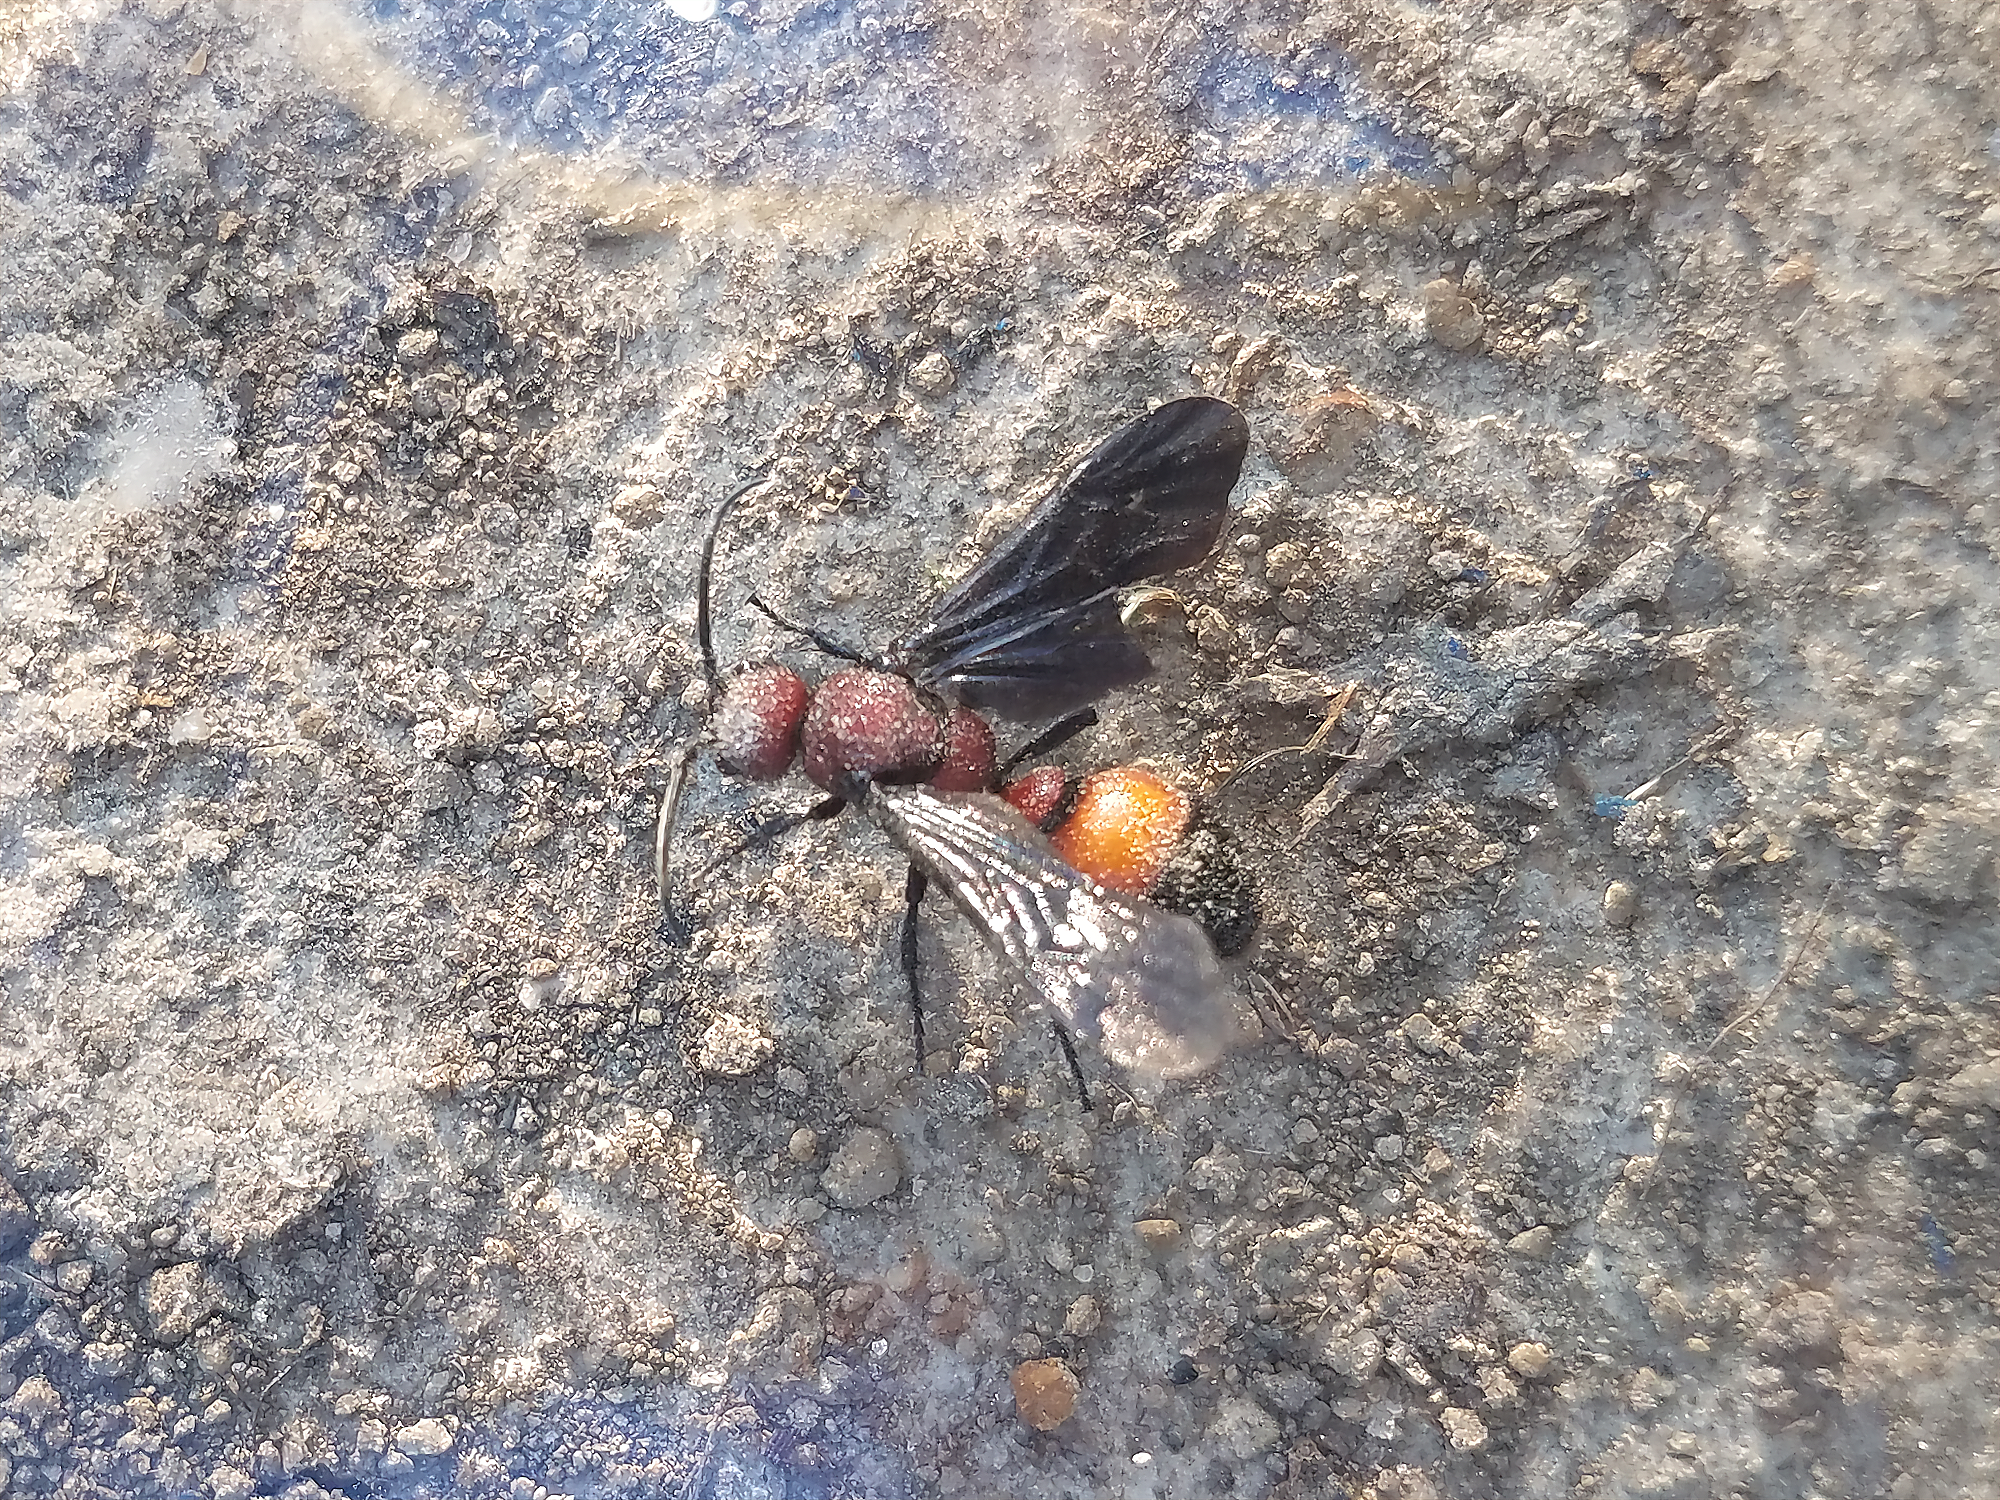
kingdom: Animalia
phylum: Arthropoda
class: Insecta
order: Hymenoptera
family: Mutillidae
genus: Sphaeropthalma
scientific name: Sphaeropthalma
